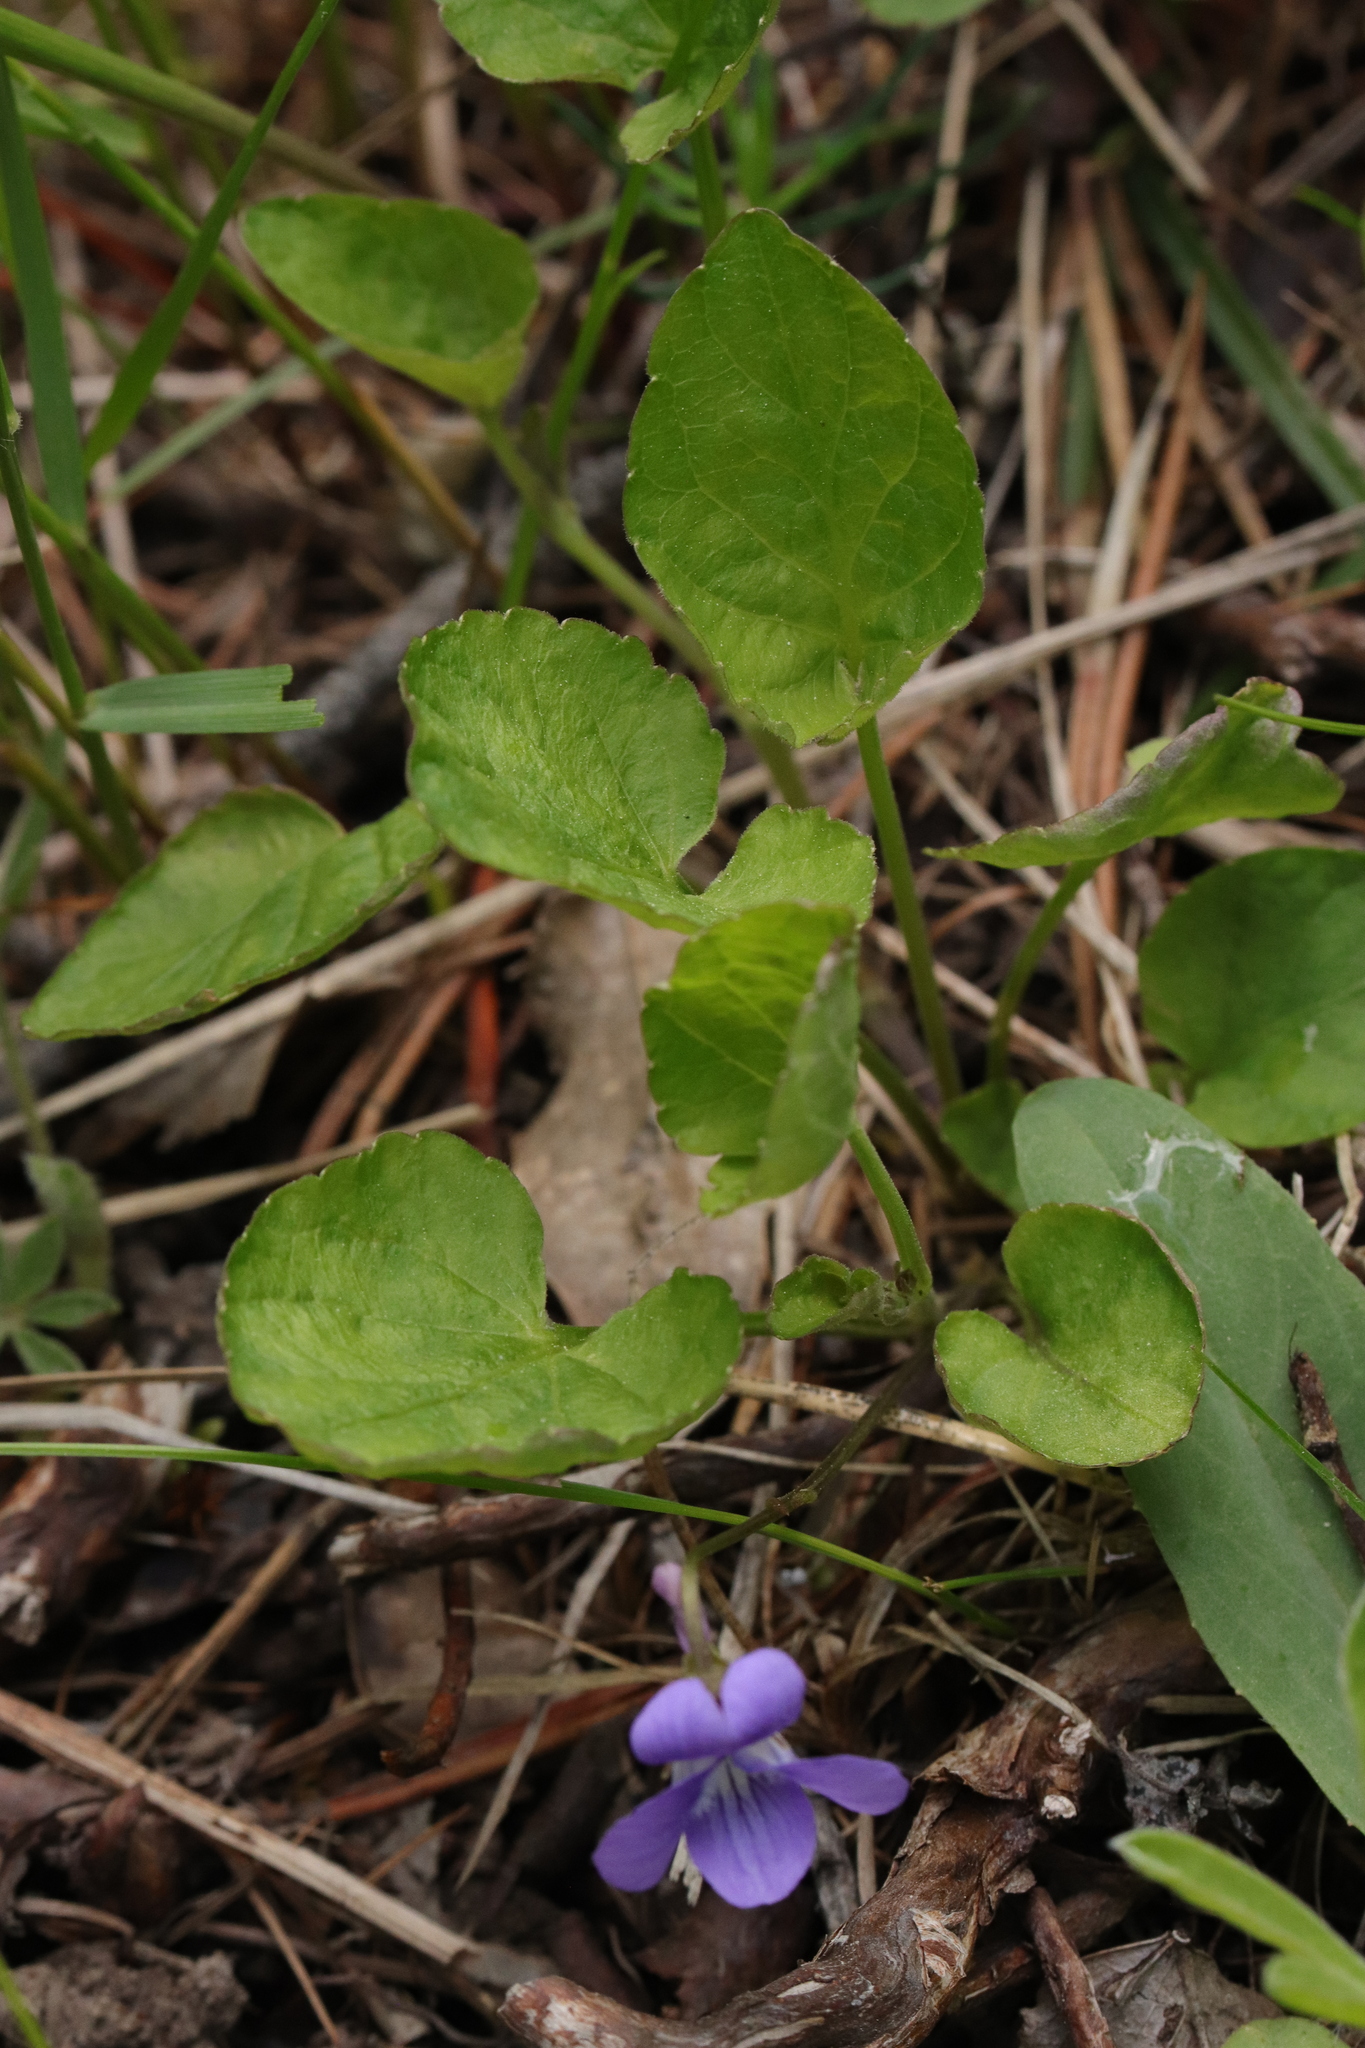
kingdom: Plantae
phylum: Tracheophyta
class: Magnoliopsida
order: Malpighiales
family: Violaceae
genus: Viola
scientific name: Viola adunca
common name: Sand violet
